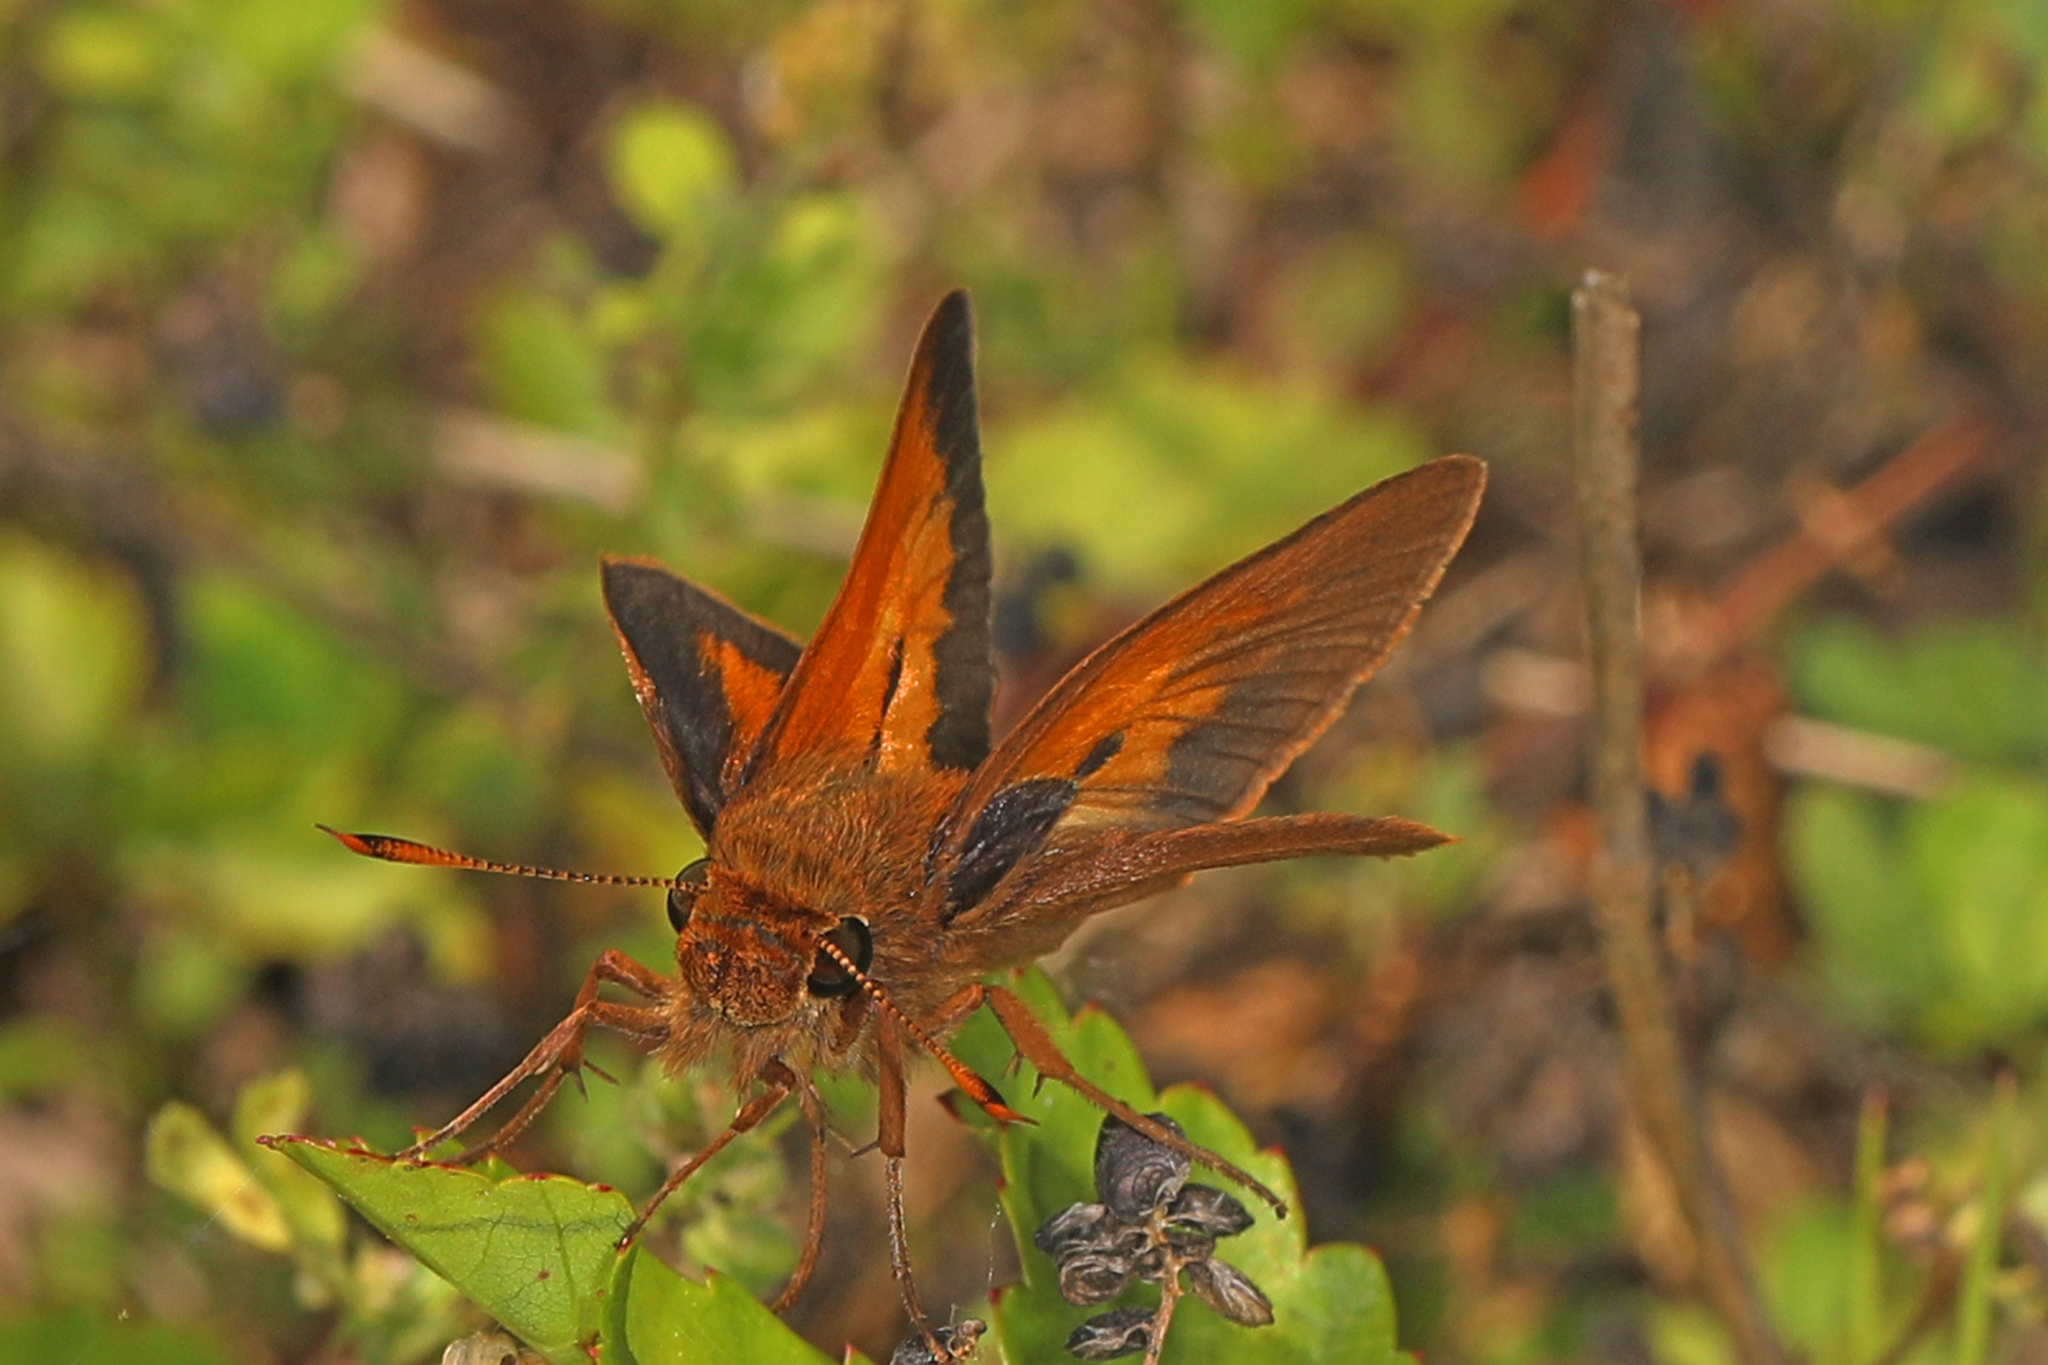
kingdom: Animalia
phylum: Arthropoda
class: Insecta
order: Lepidoptera
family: Hesperiidae
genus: Euphyes
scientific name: Euphyes pilatka
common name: Palatka skipper
